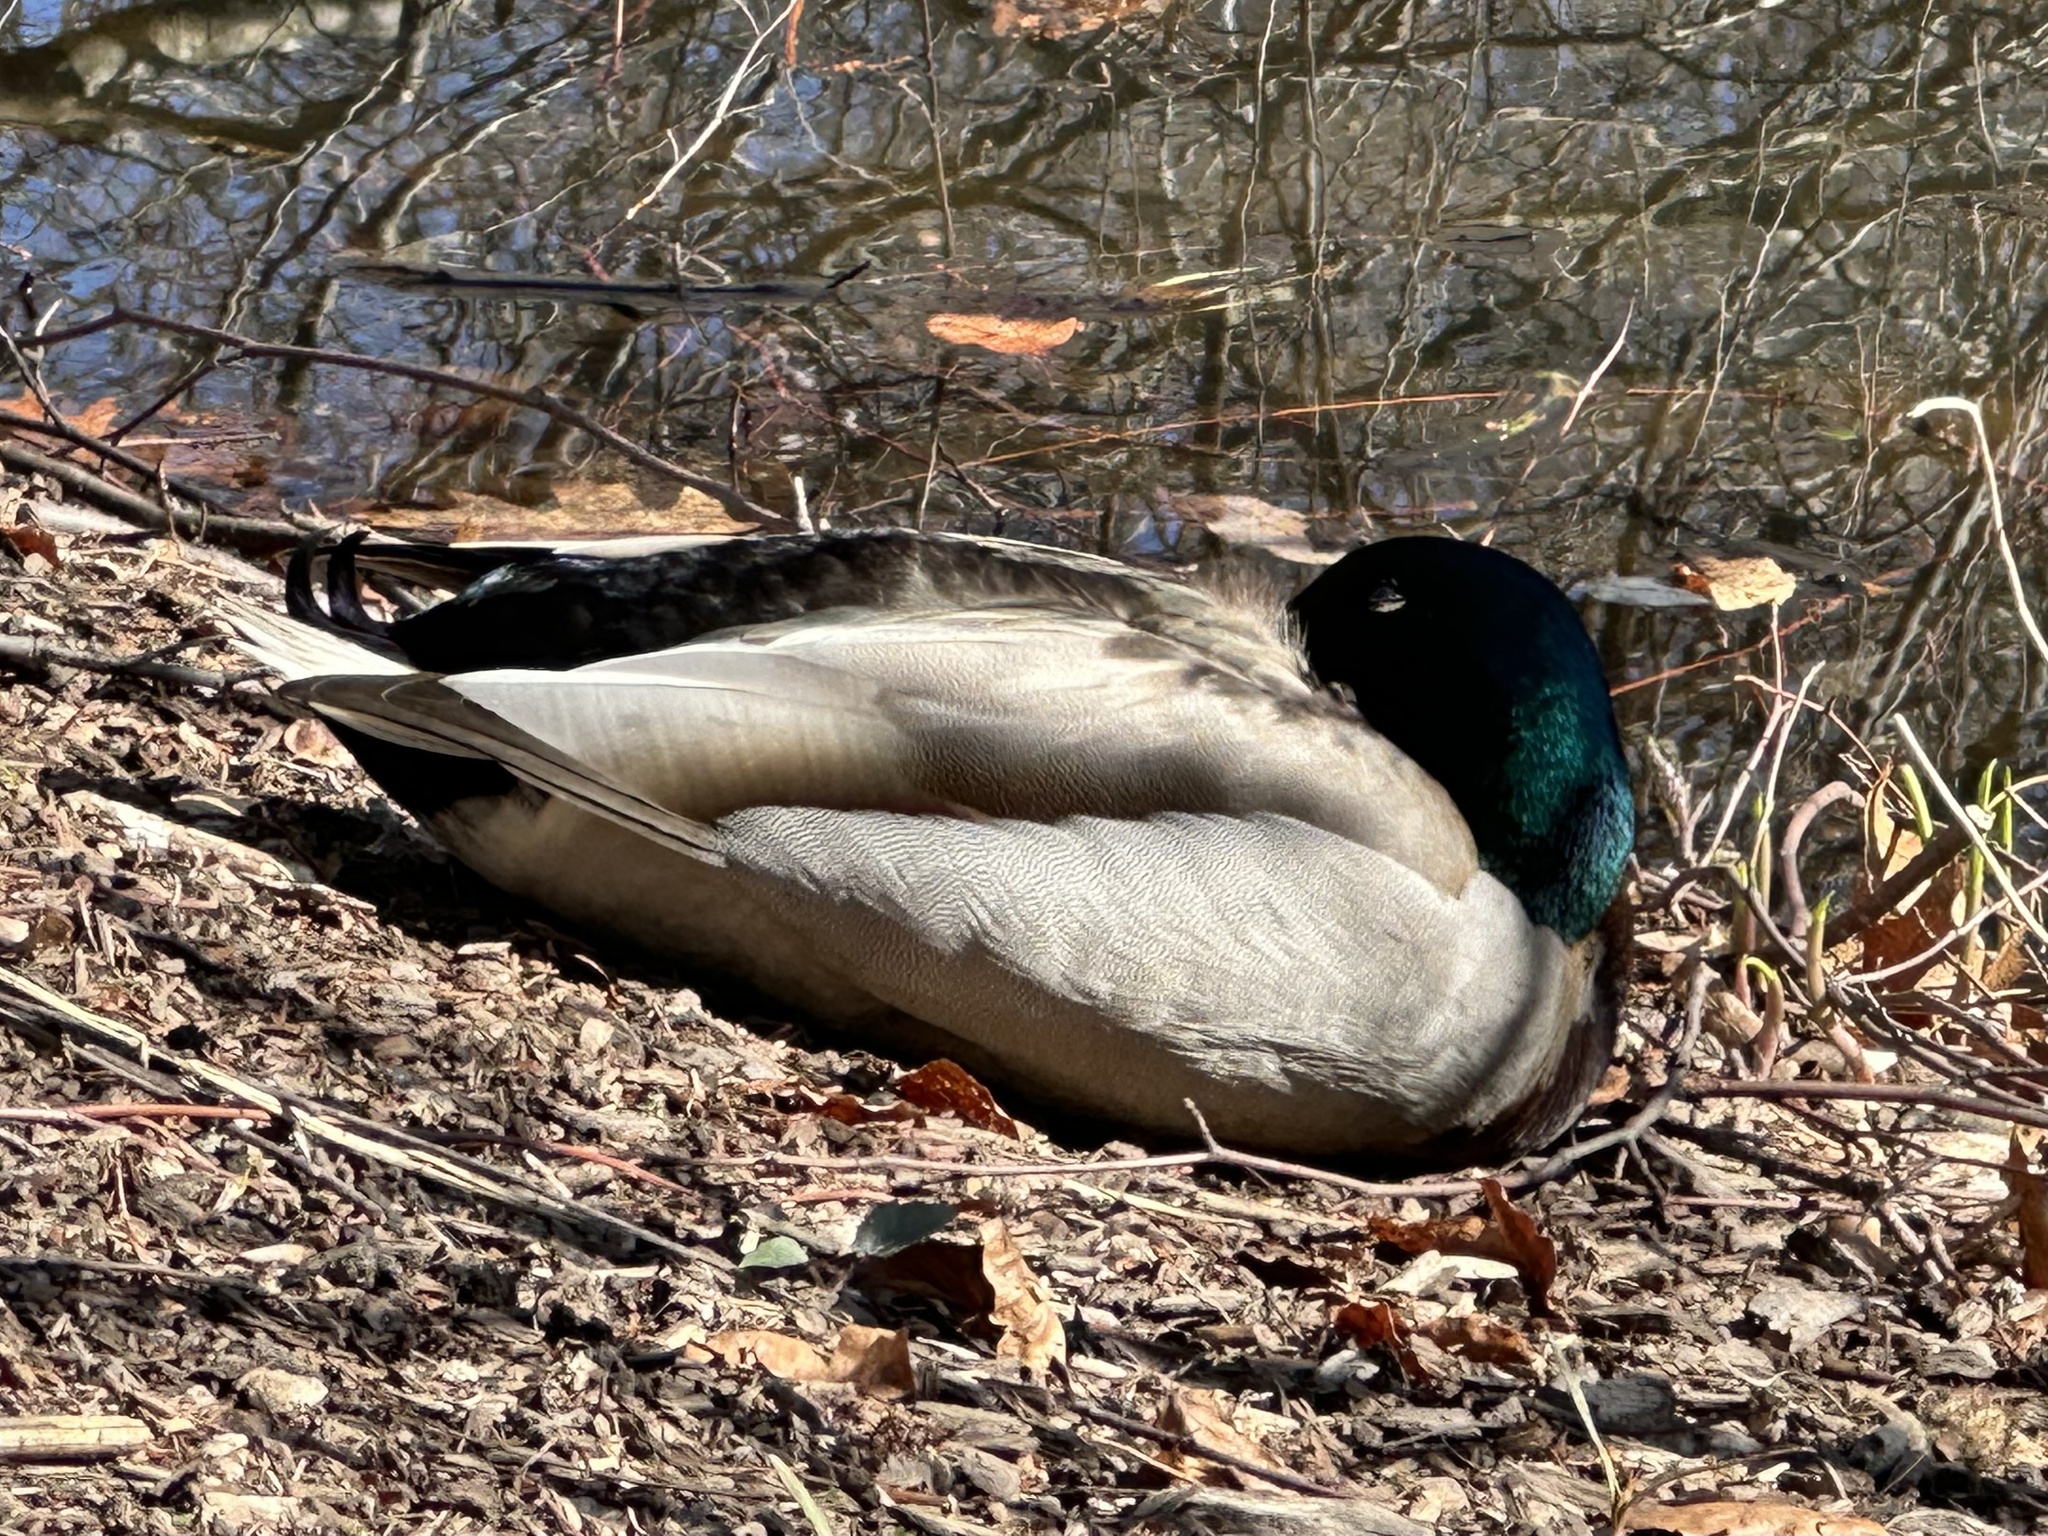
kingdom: Animalia
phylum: Chordata
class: Aves
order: Anseriformes
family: Anatidae
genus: Anas
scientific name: Anas platyrhynchos
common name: Mallard
